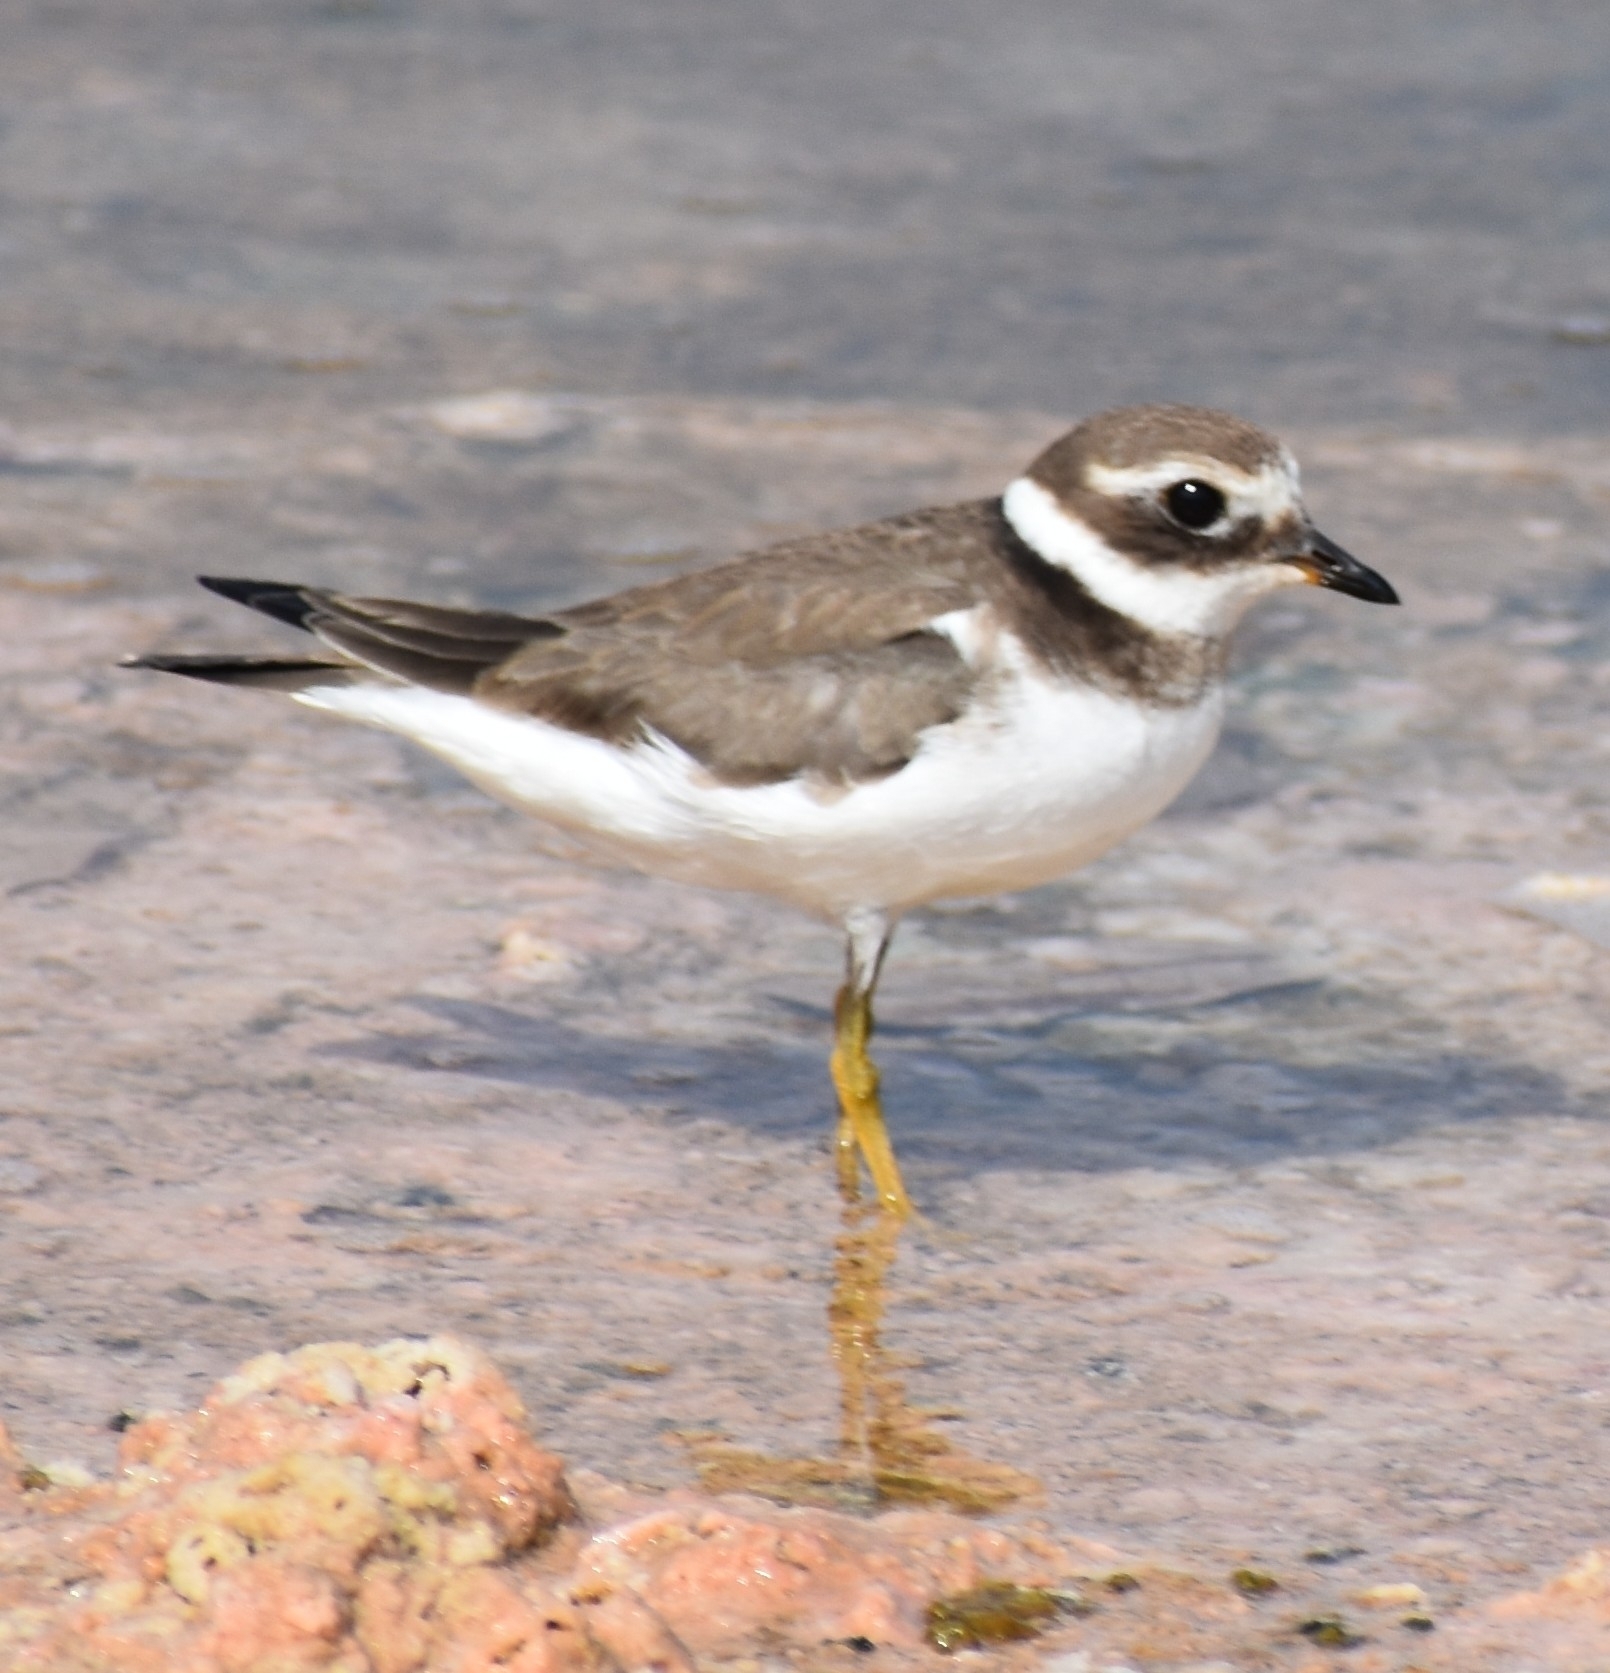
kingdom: Animalia
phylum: Chordata
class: Aves
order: Charadriiformes
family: Charadriidae
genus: Charadrius
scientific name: Charadrius hiaticula
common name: Common ringed plover
